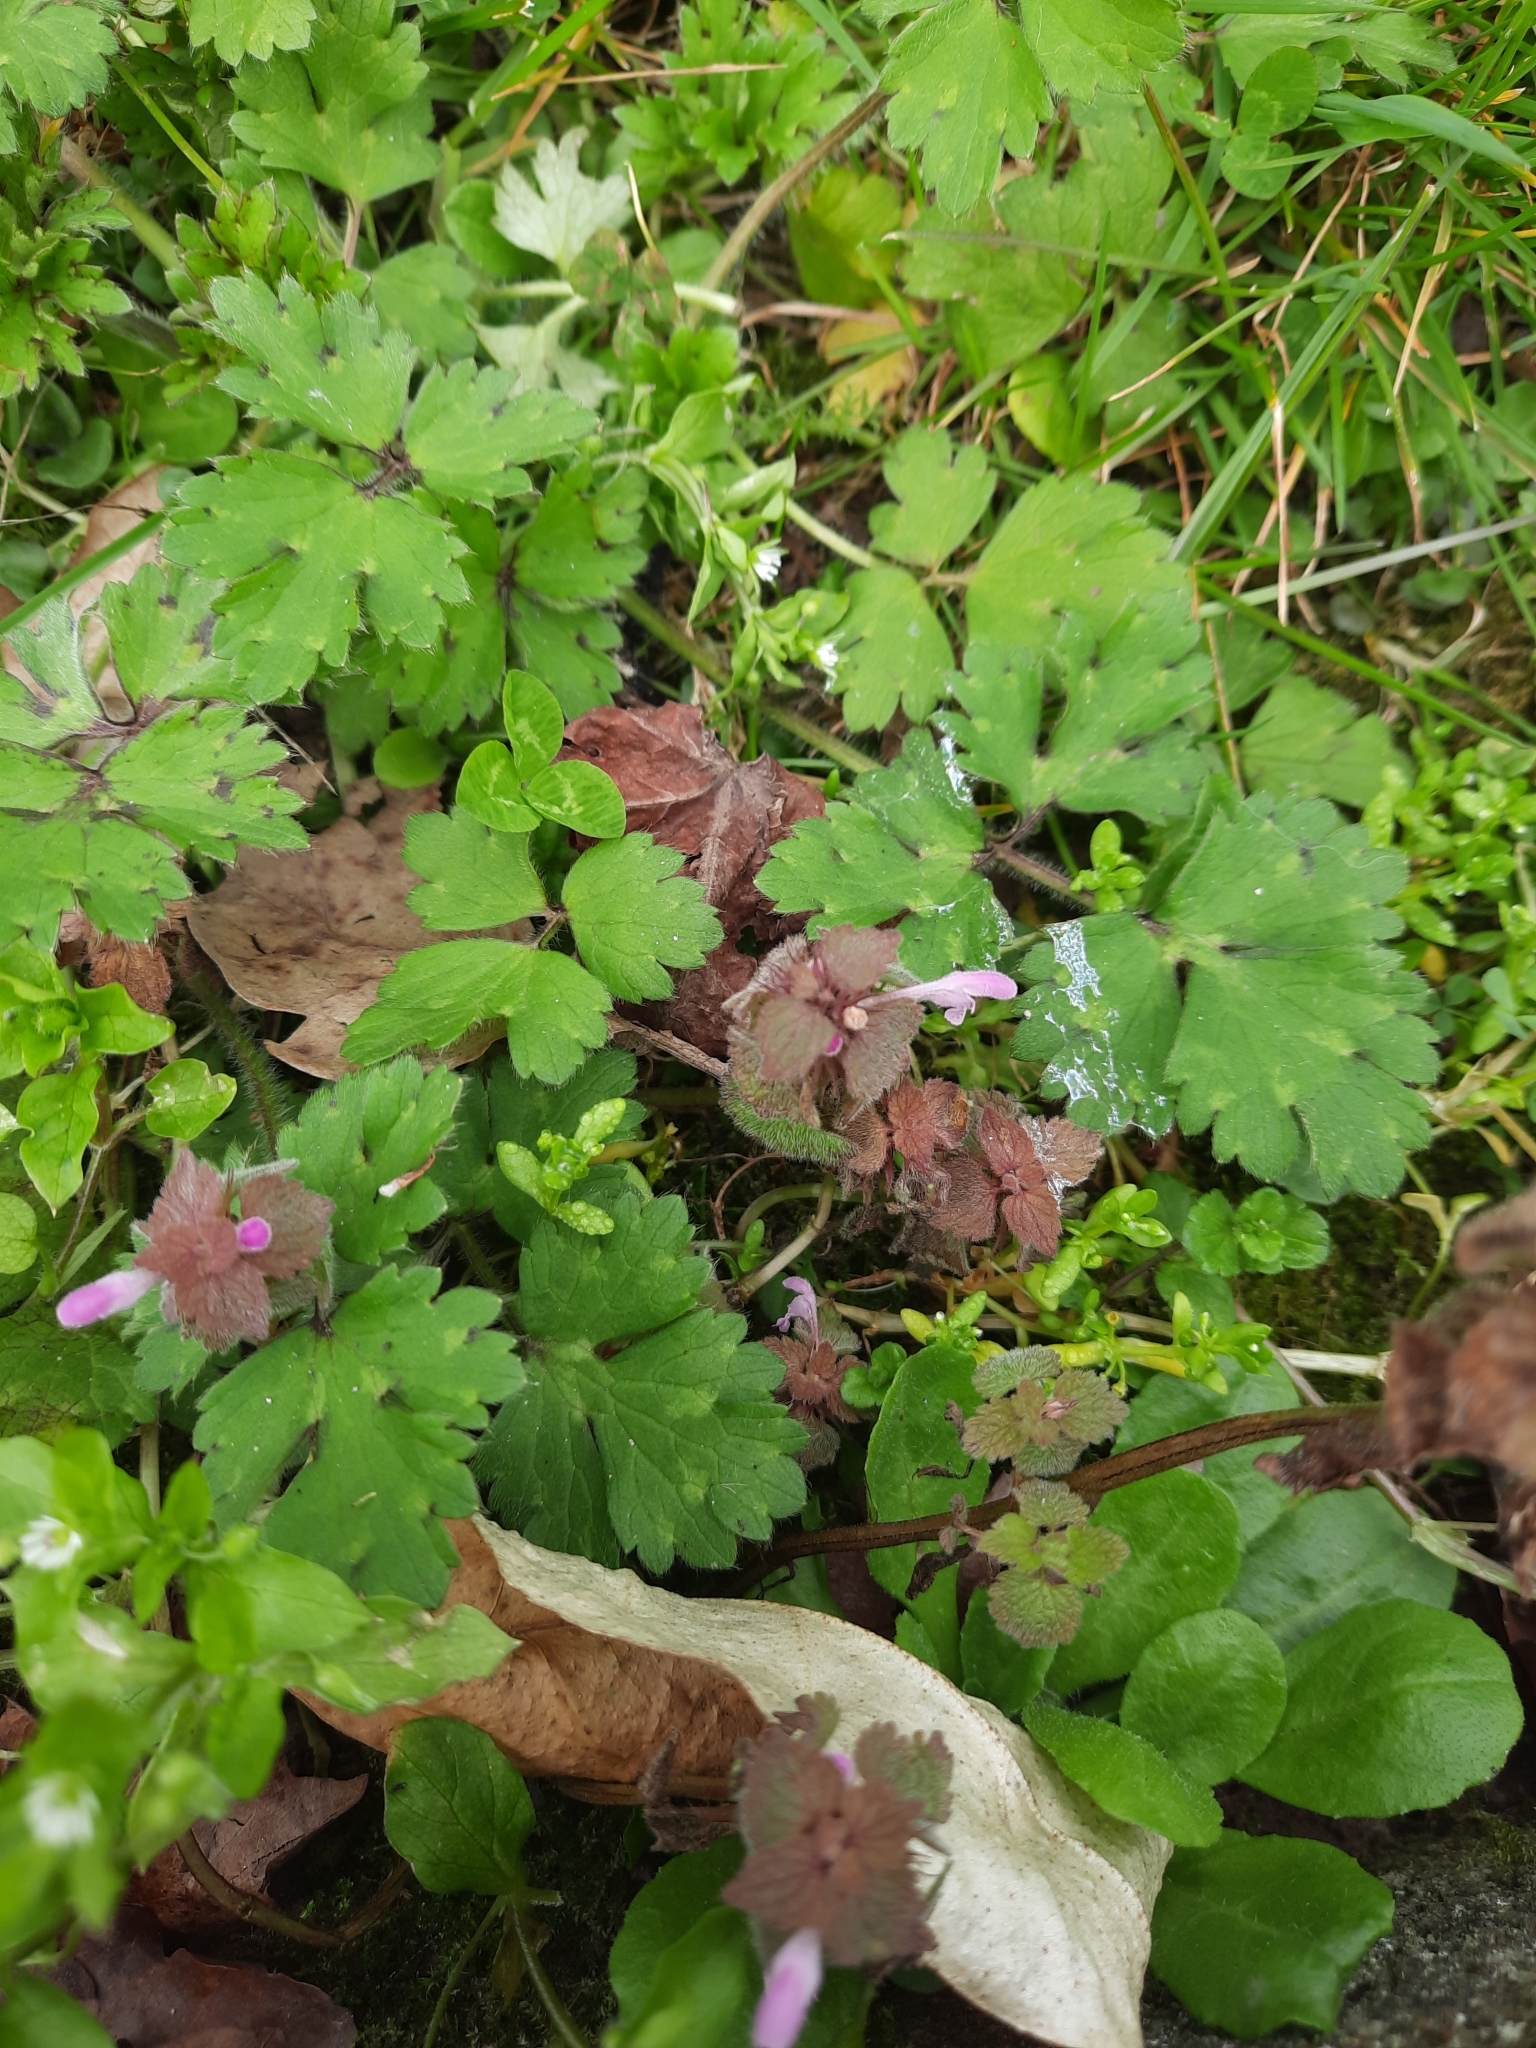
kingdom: Plantae
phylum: Tracheophyta
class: Magnoliopsida
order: Lamiales
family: Lamiaceae
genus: Lamium
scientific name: Lamium purpureum
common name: Red dead-nettle
